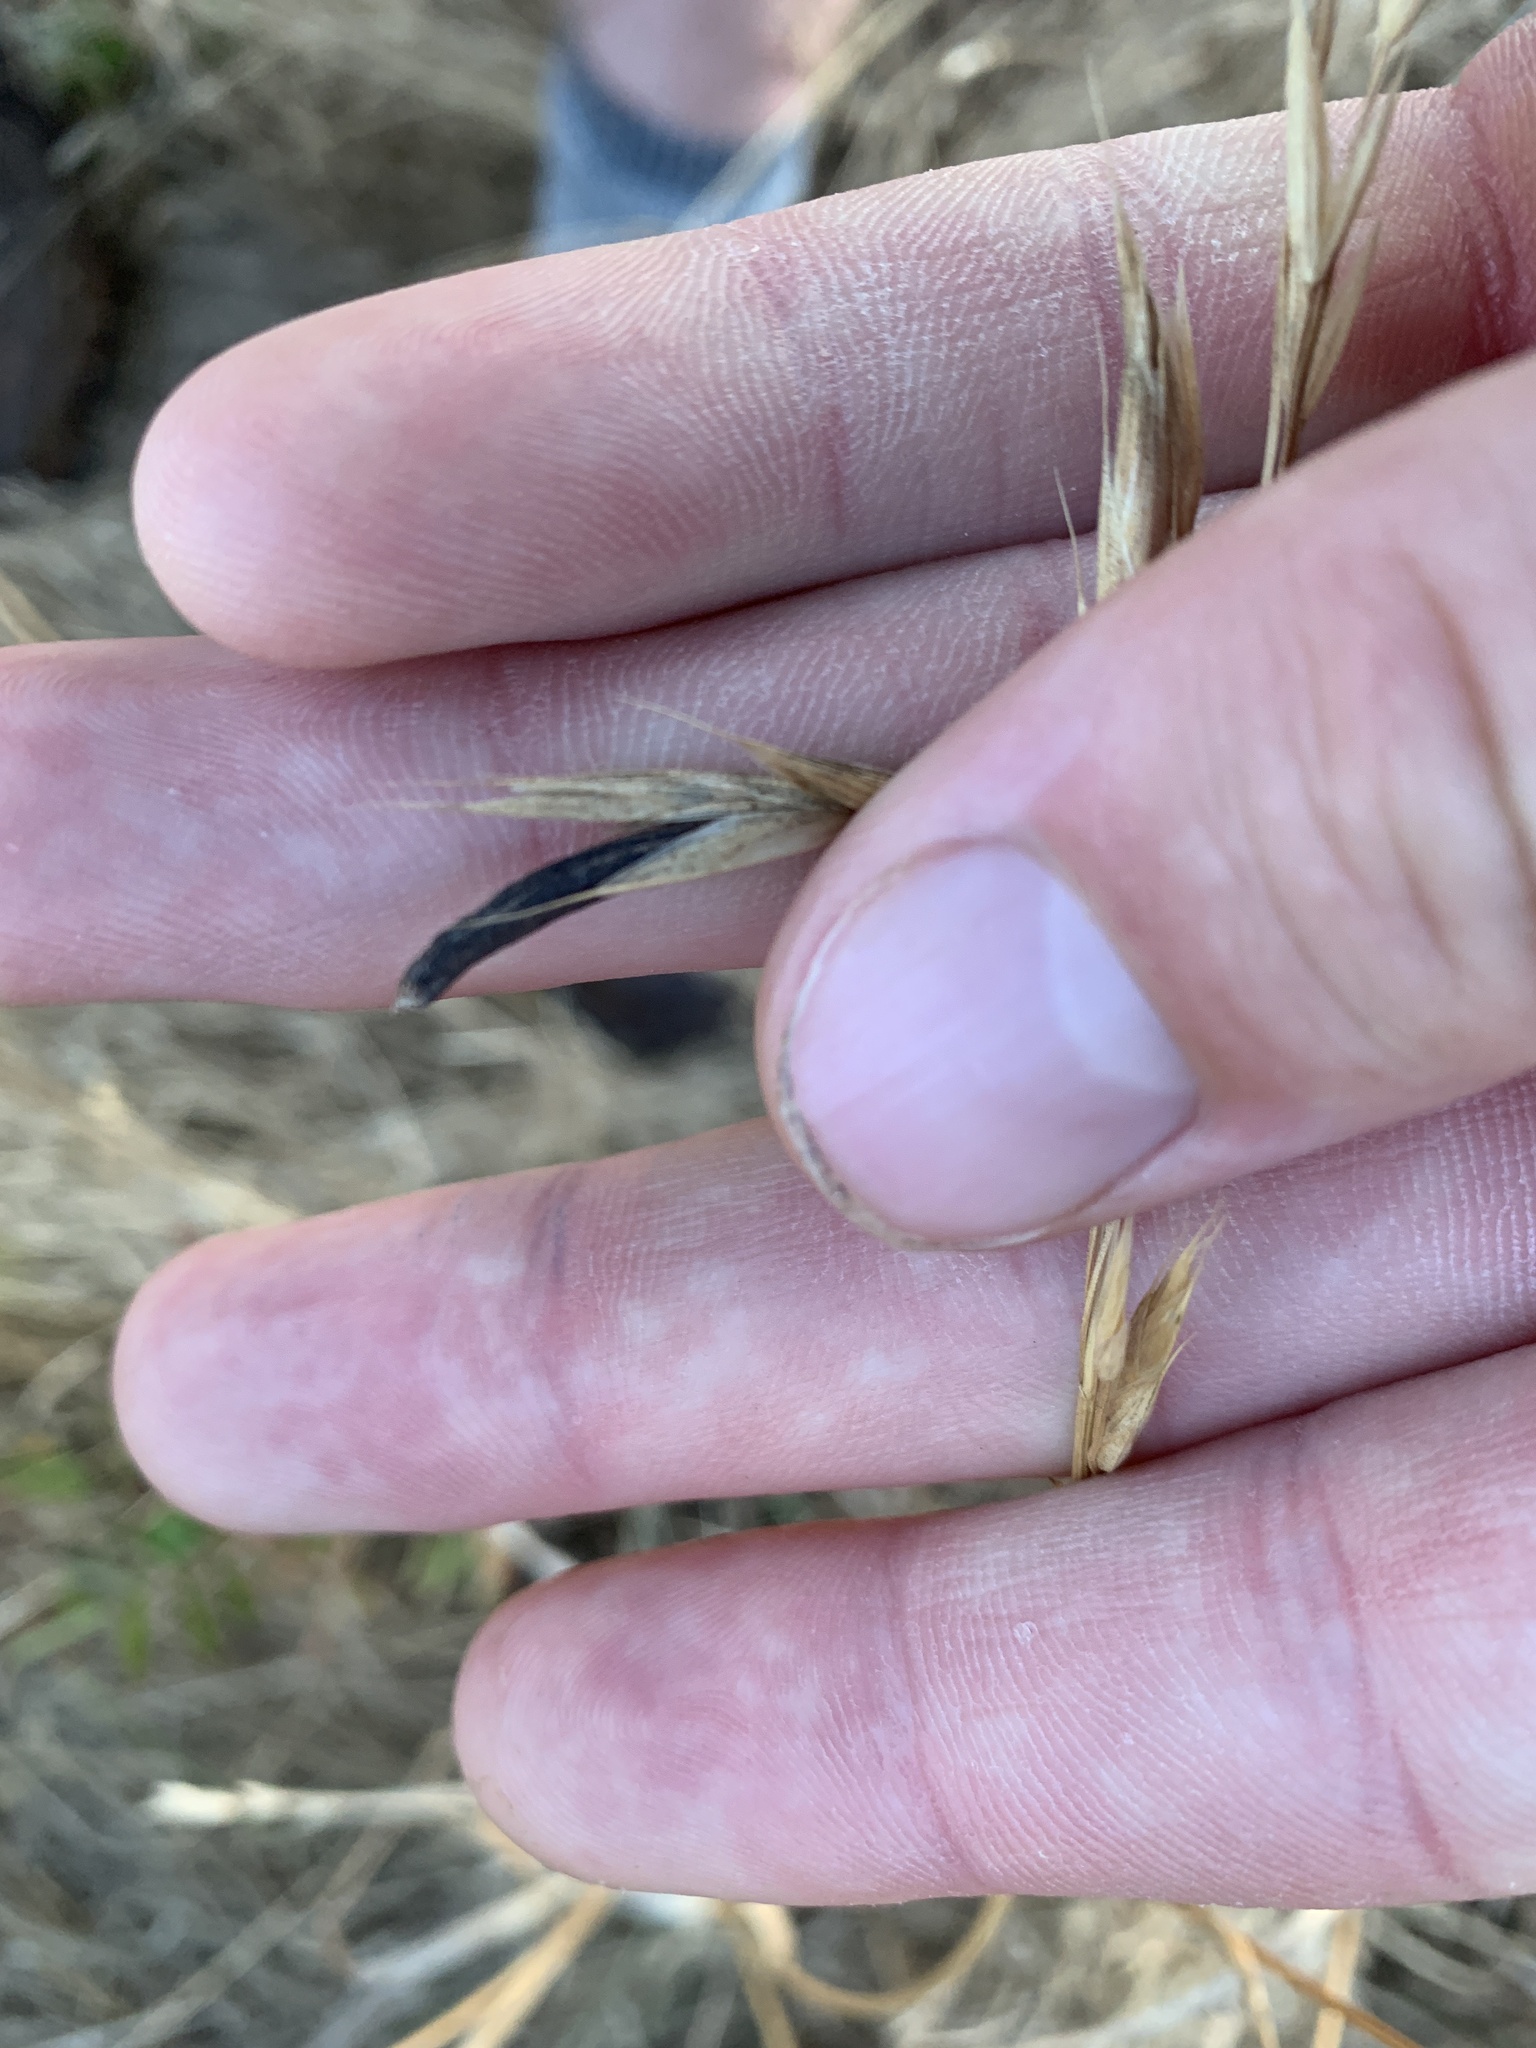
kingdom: Fungi
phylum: Ascomycota
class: Sordariomycetes
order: Hypocreales
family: Clavicipitaceae
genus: Claviceps
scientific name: Claviceps purpurea
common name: Rye ergot
